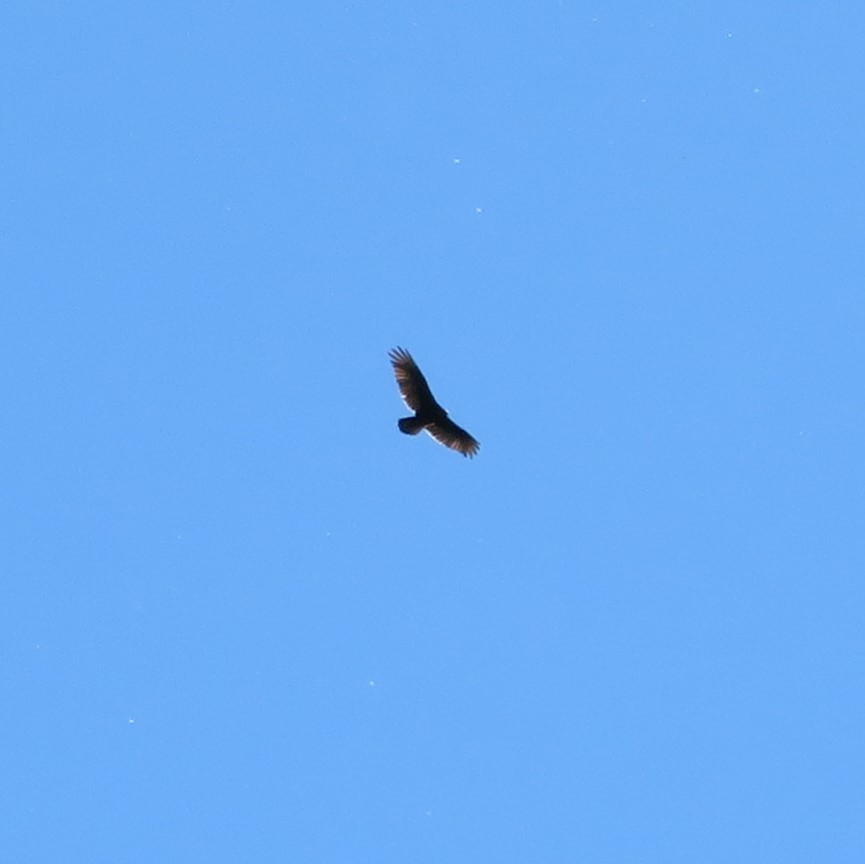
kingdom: Animalia
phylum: Chordata
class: Aves
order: Accipitriformes
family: Cathartidae
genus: Cathartes
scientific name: Cathartes aura
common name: Turkey vulture
